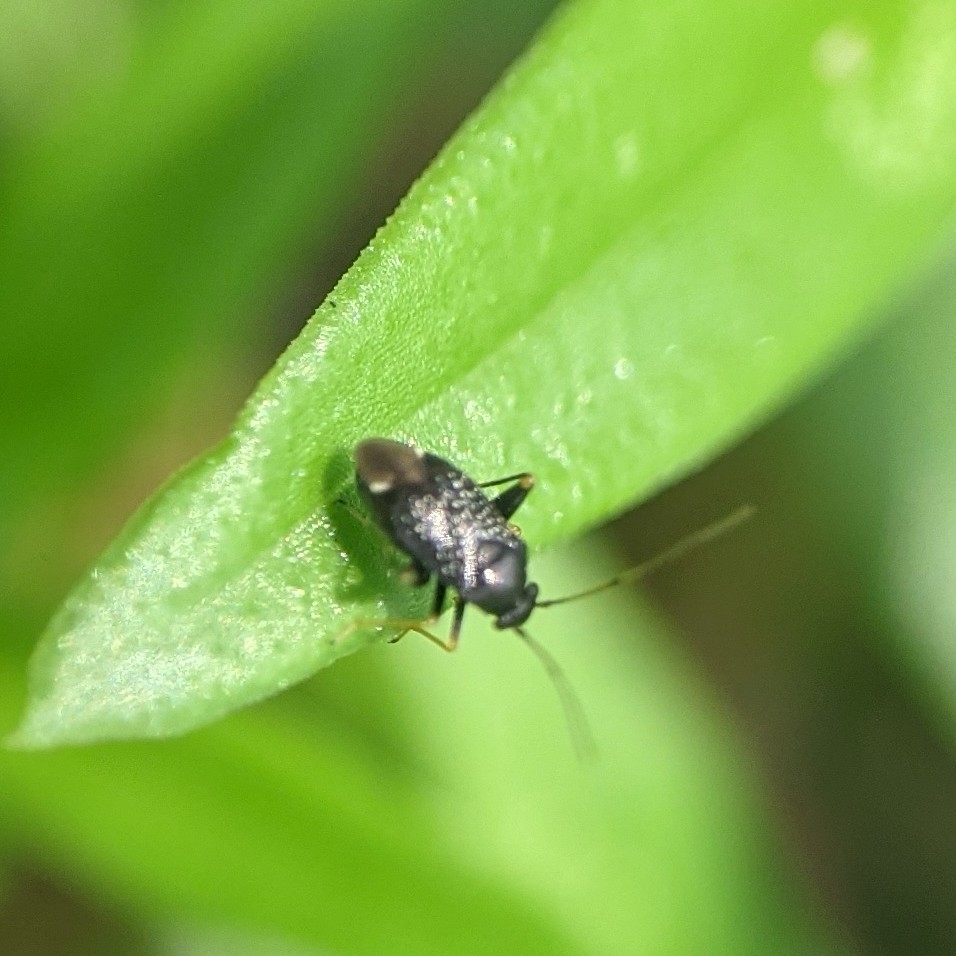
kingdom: Animalia
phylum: Arthropoda
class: Insecta
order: Hemiptera
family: Miridae
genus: Microtechnites
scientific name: Microtechnites bractatus
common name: Garden fleahopper
